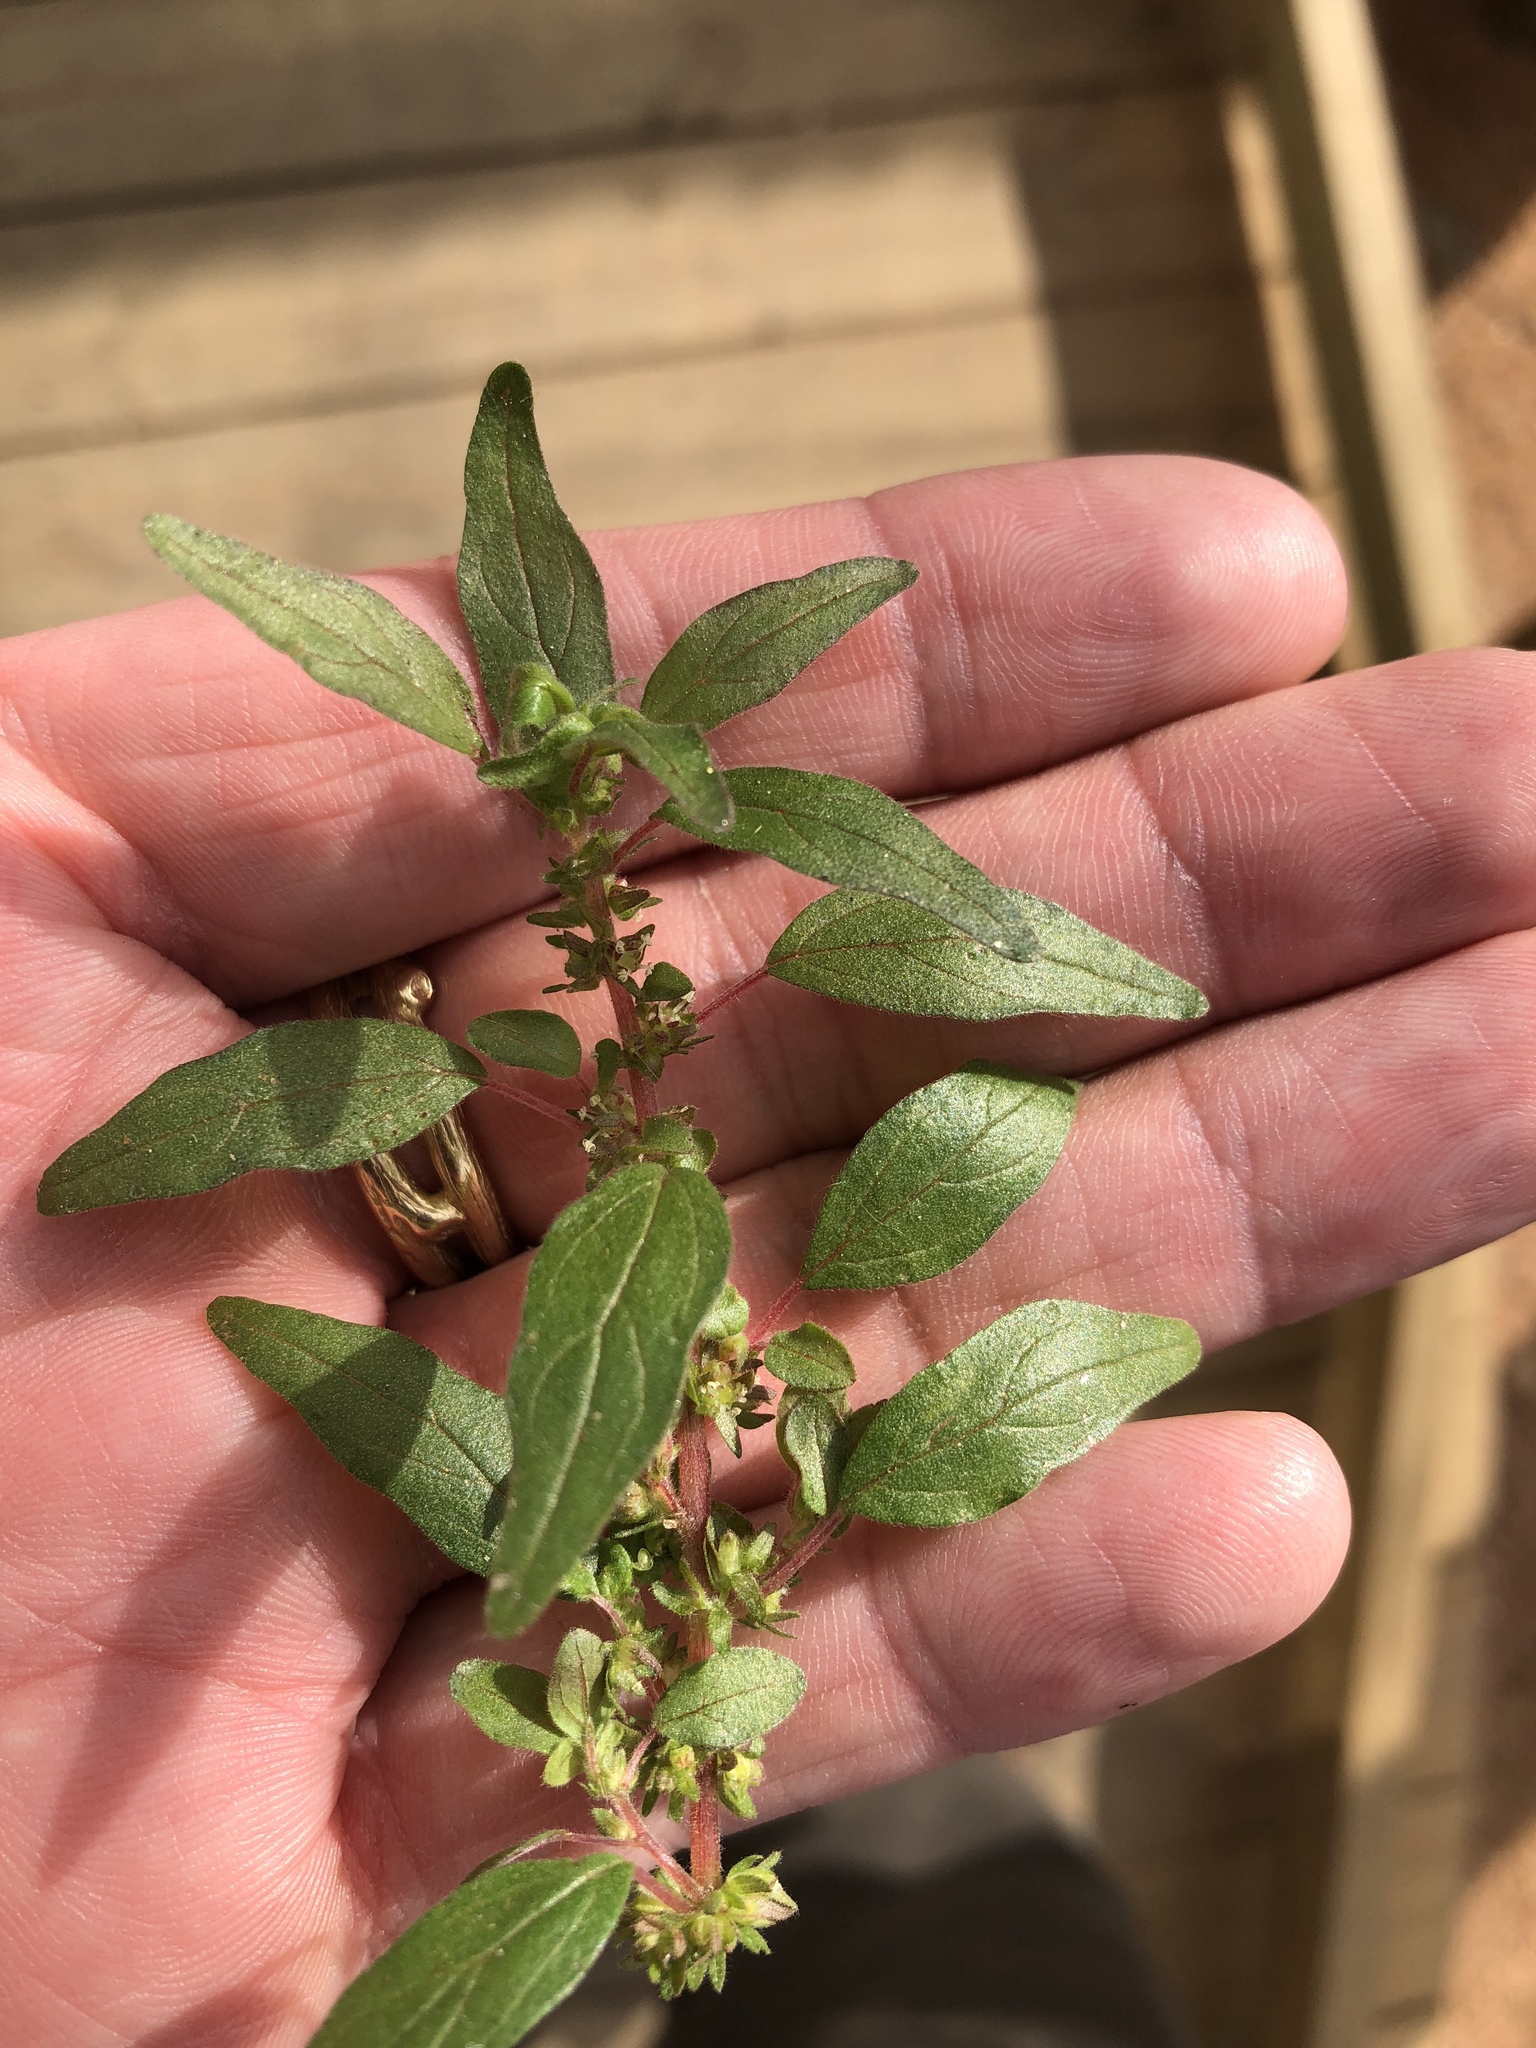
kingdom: Plantae
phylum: Tracheophyta
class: Magnoliopsida
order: Rosales
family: Urticaceae
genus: Parietaria
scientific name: Parietaria pensylvanica
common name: Pennsylvania pellitory
